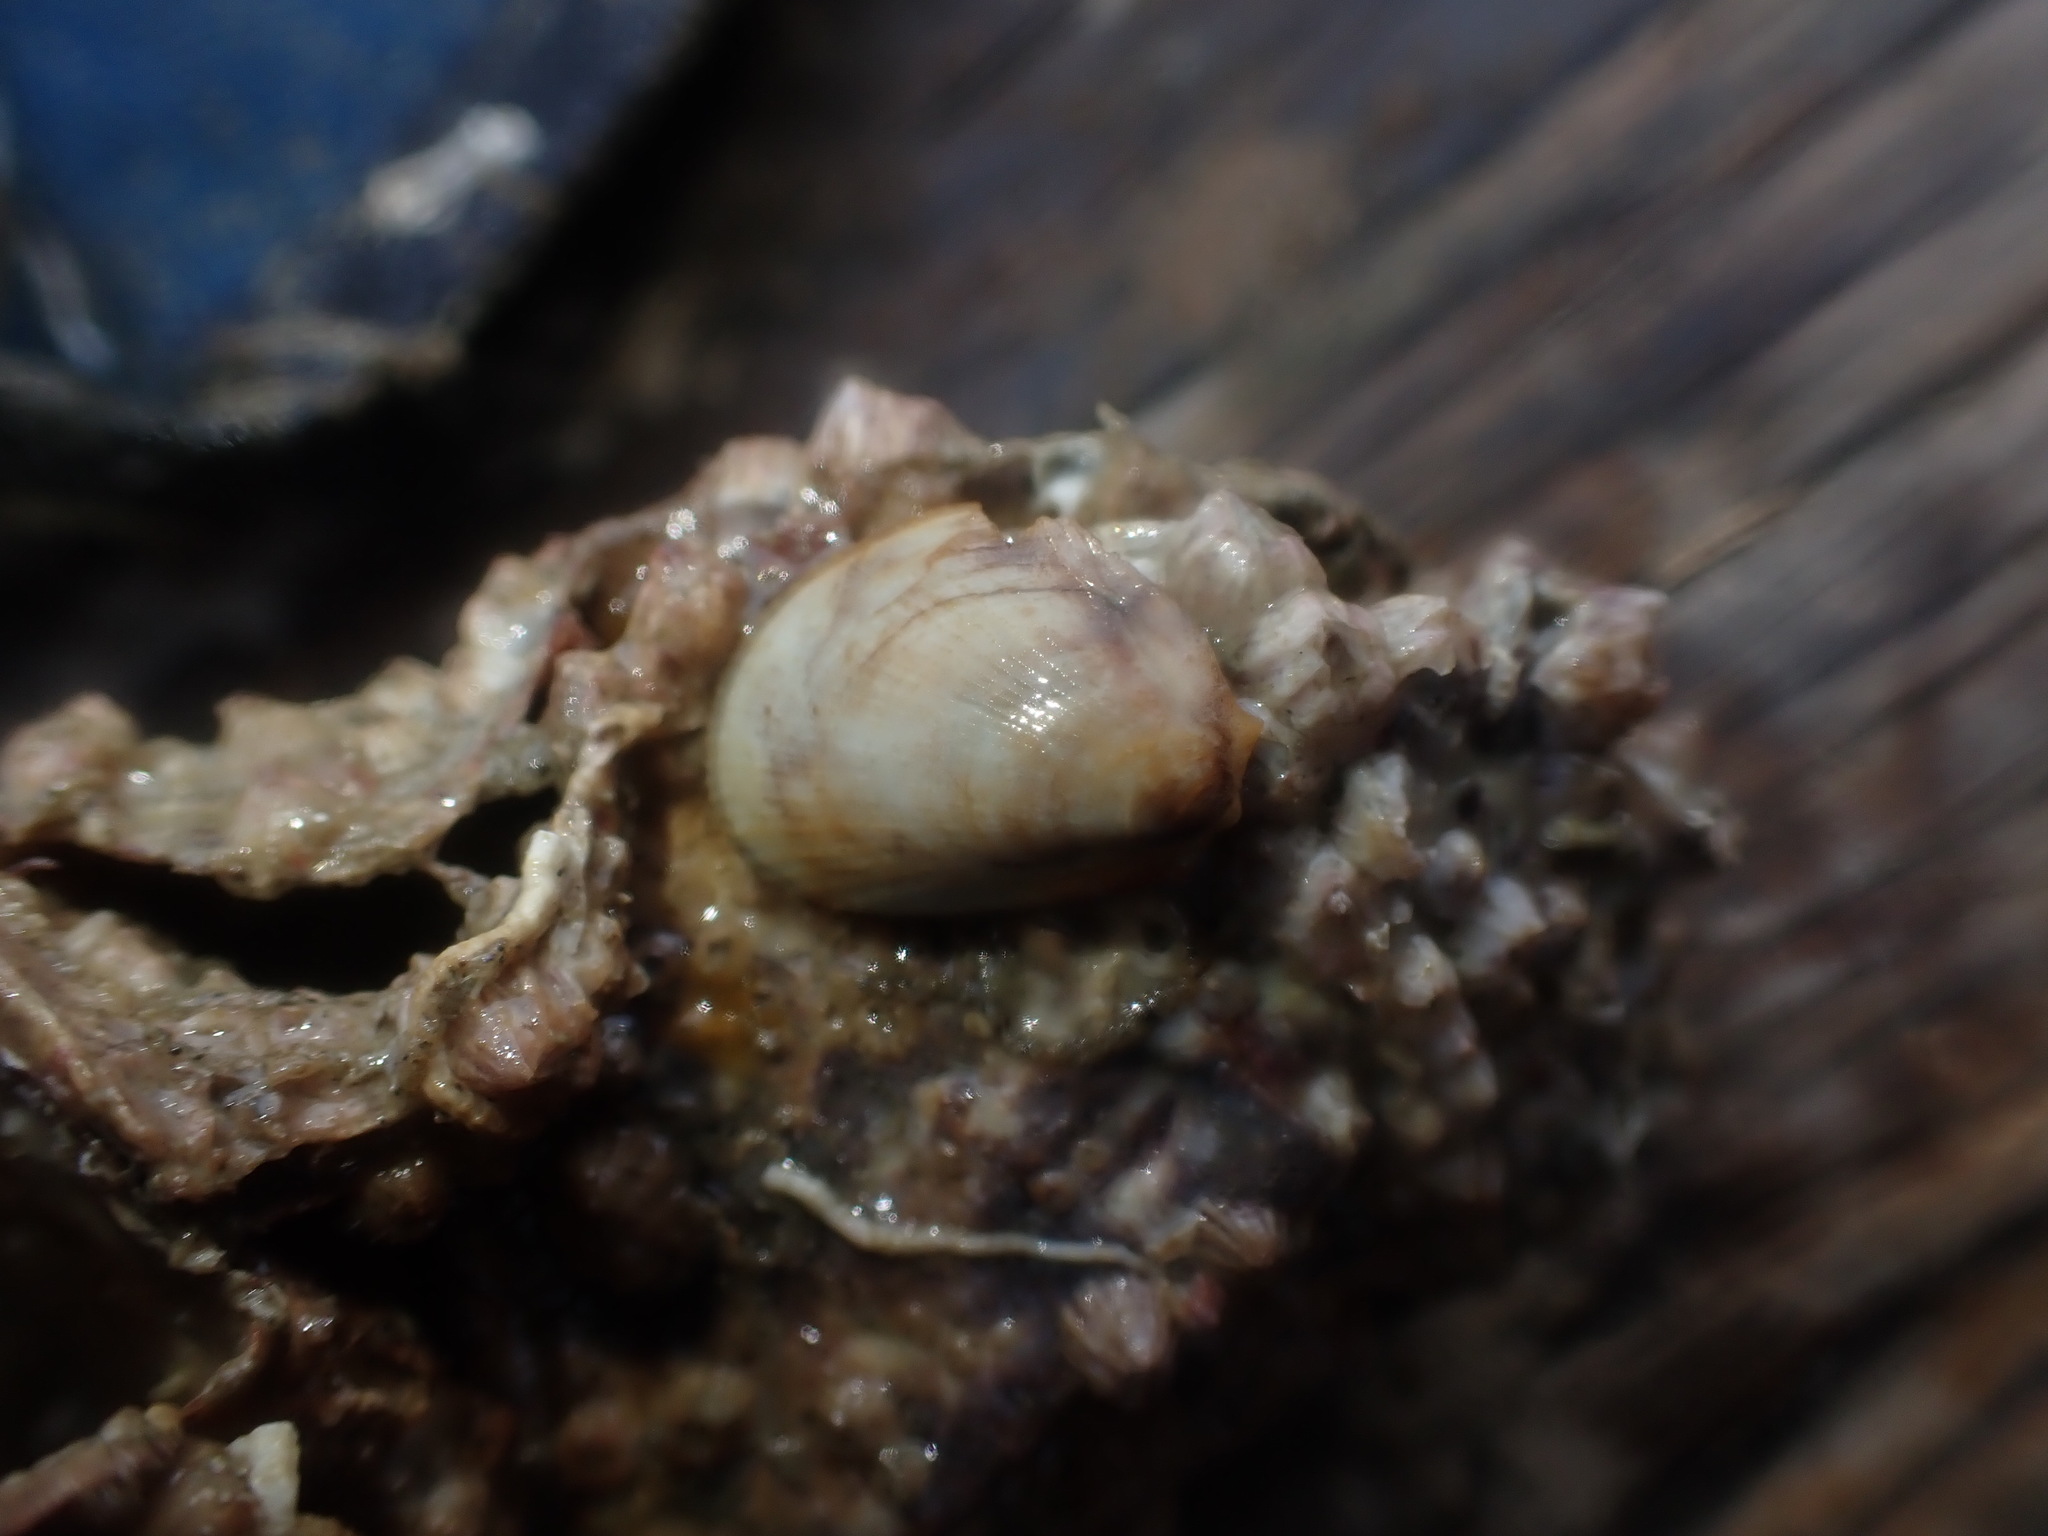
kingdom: Animalia
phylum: Mollusca
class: Bivalvia
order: Limida
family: Limidae
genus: Limaria
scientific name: Limaria orientalis
